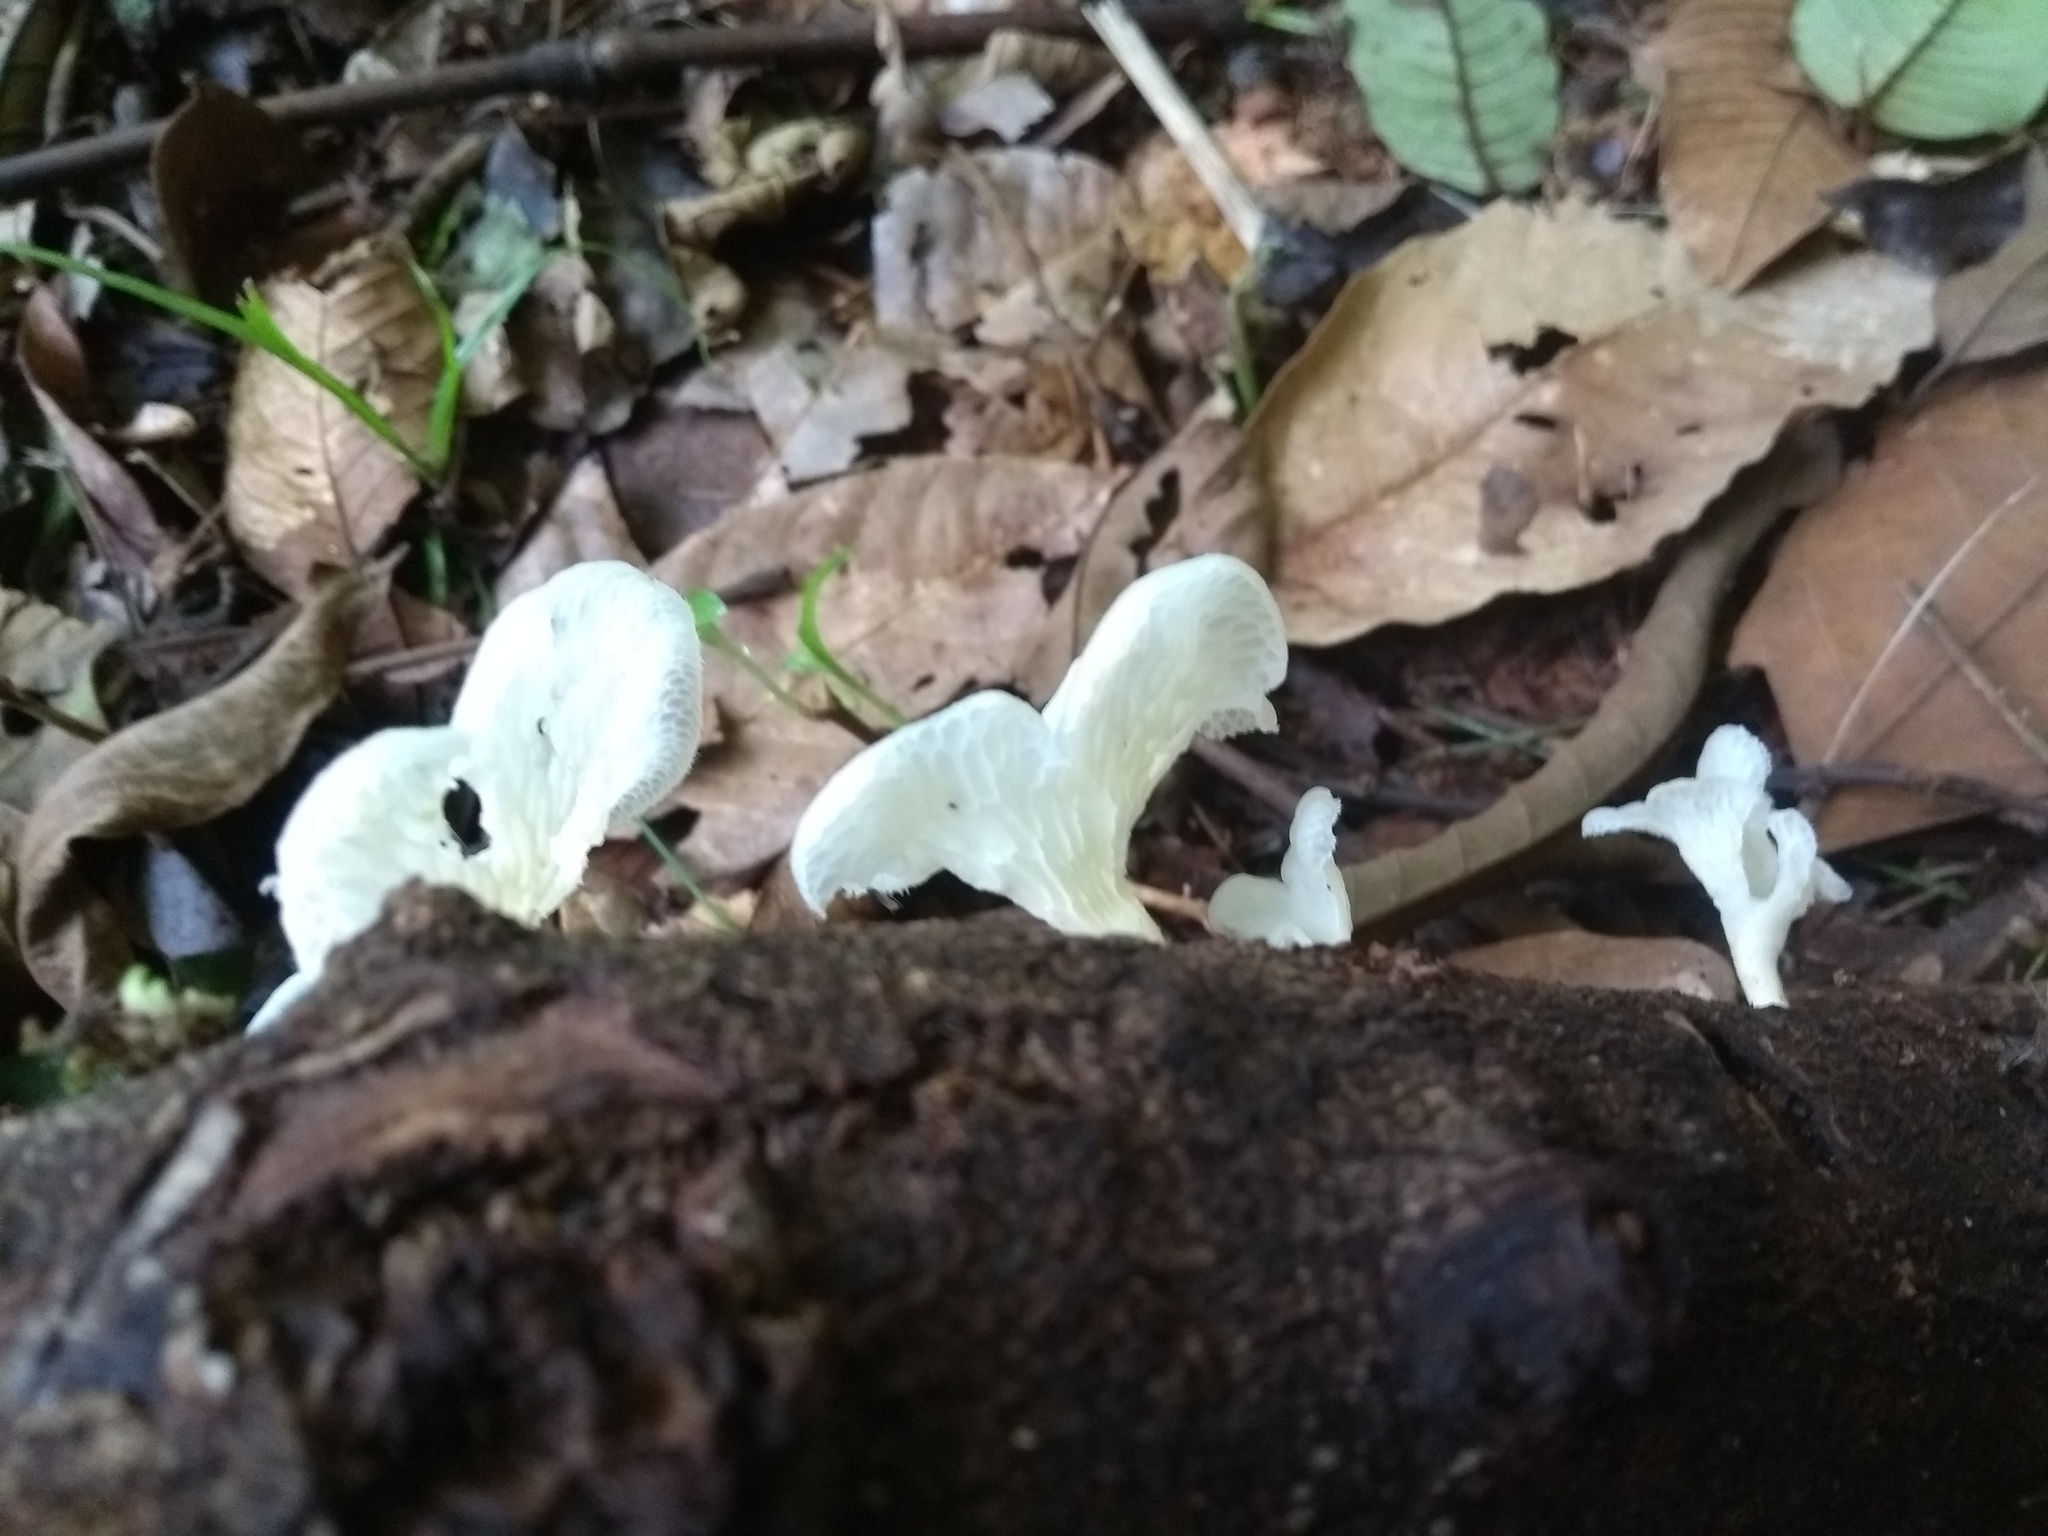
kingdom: Fungi
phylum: Basidiomycota
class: Agaricomycetes
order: Polyporales
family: Polyporaceae
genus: Favolus
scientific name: Favolus tenuiculus
